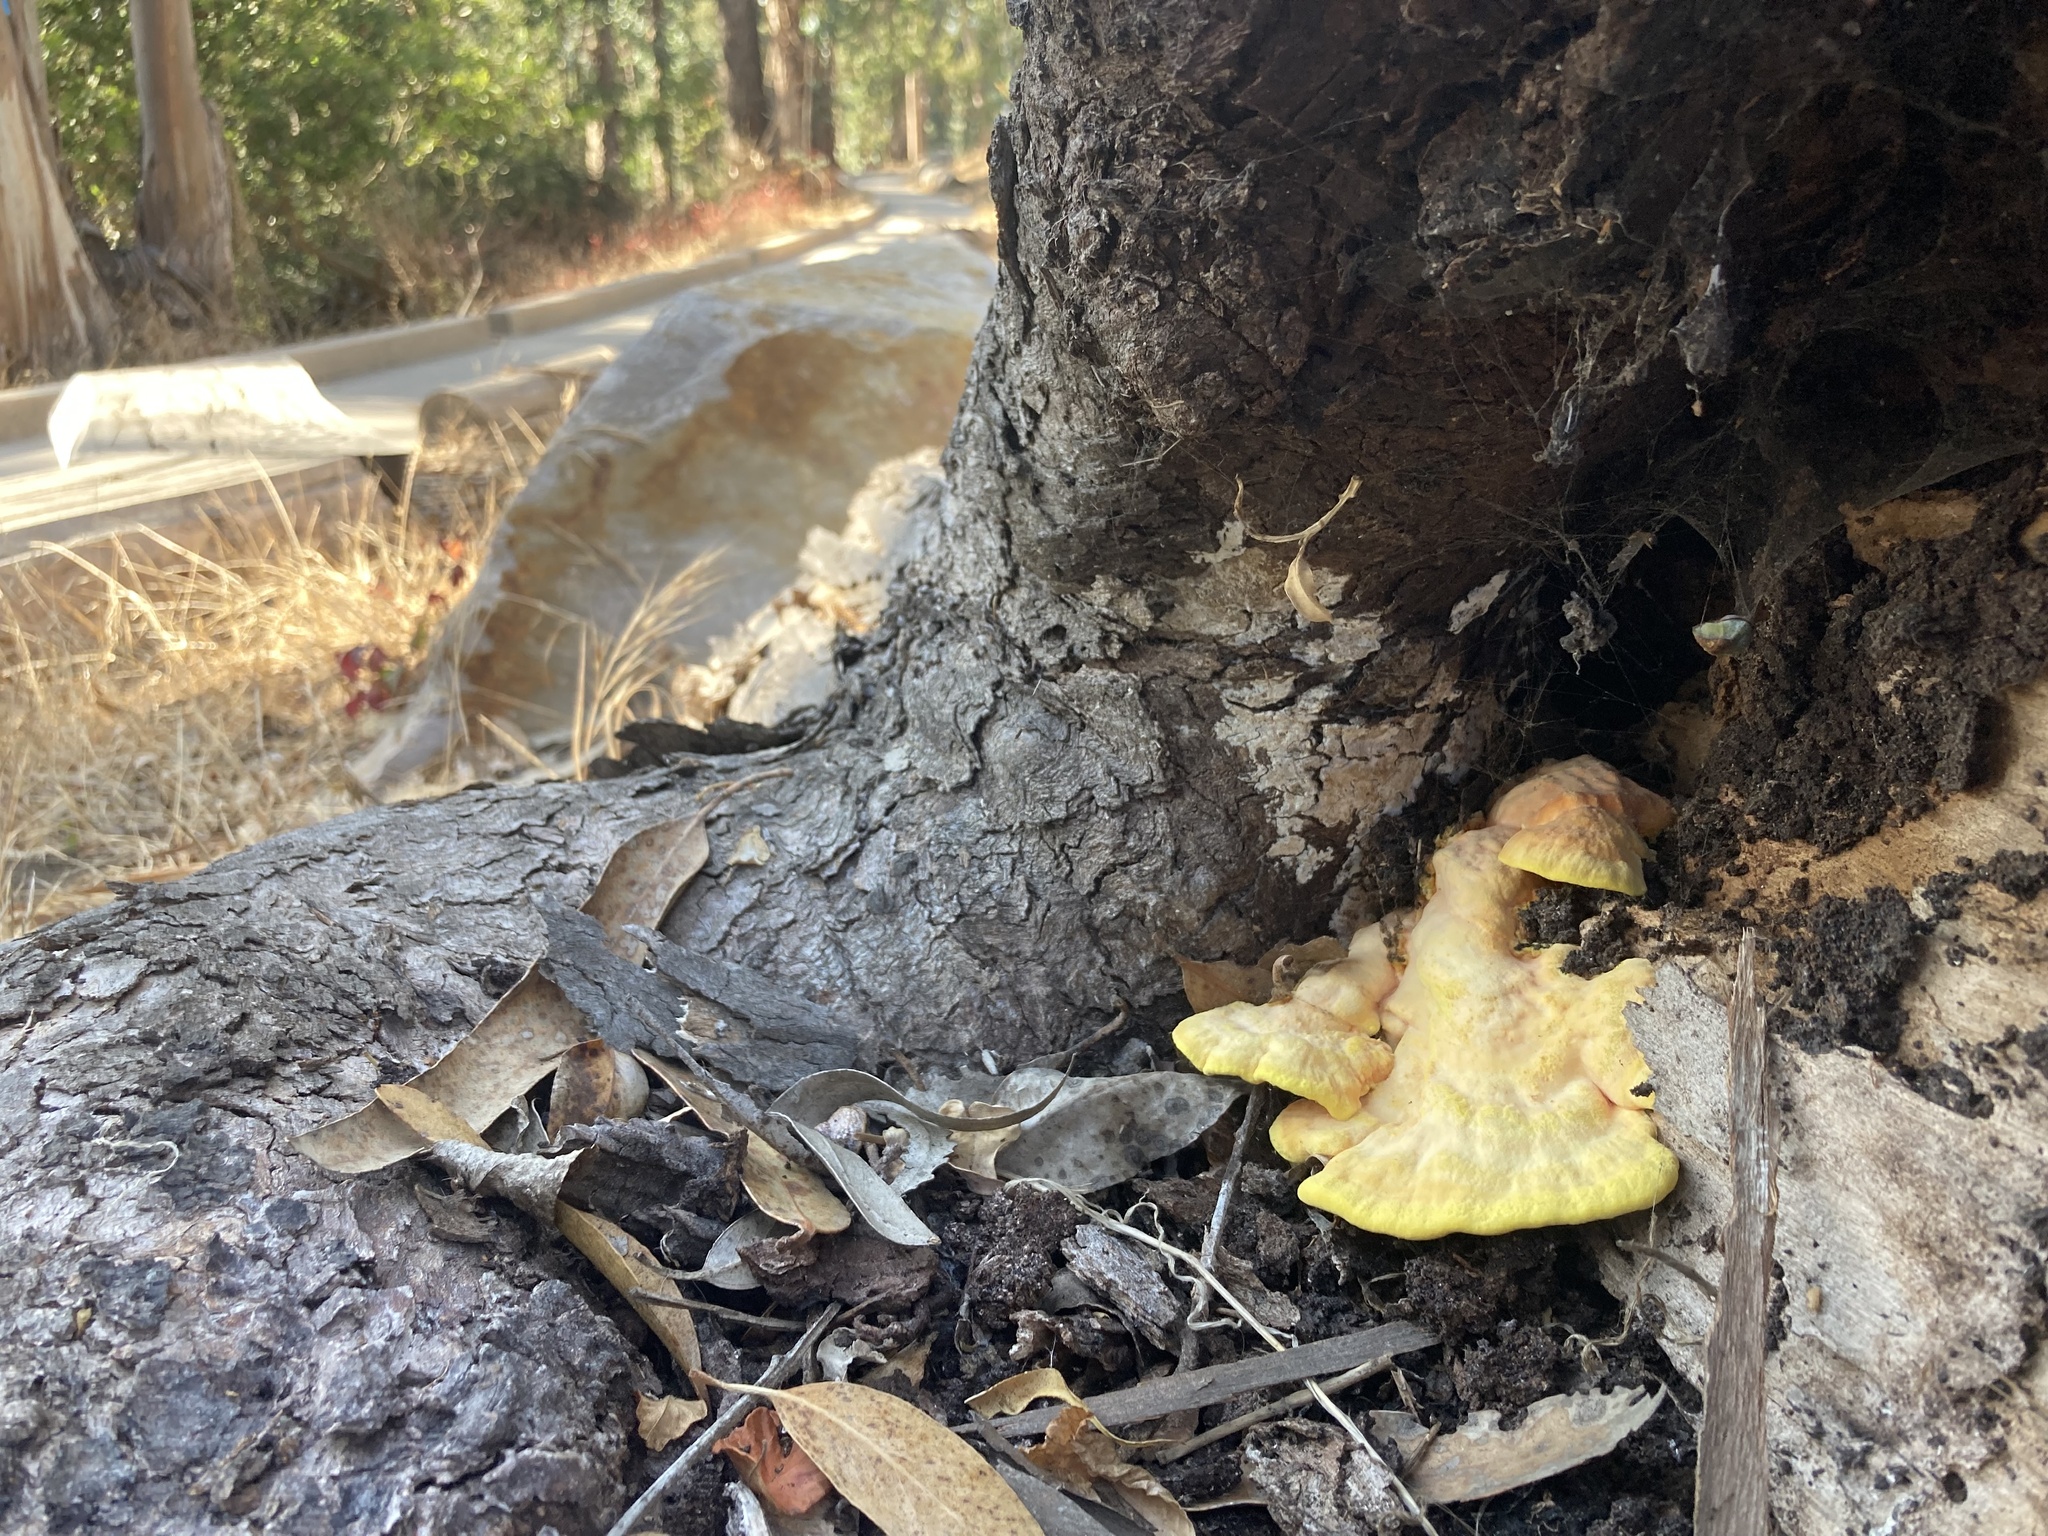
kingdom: Fungi
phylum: Basidiomycota
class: Agaricomycetes
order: Polyporales
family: Laetiporaceae
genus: Laetiporus
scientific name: Laetiporus gilbertsonii
